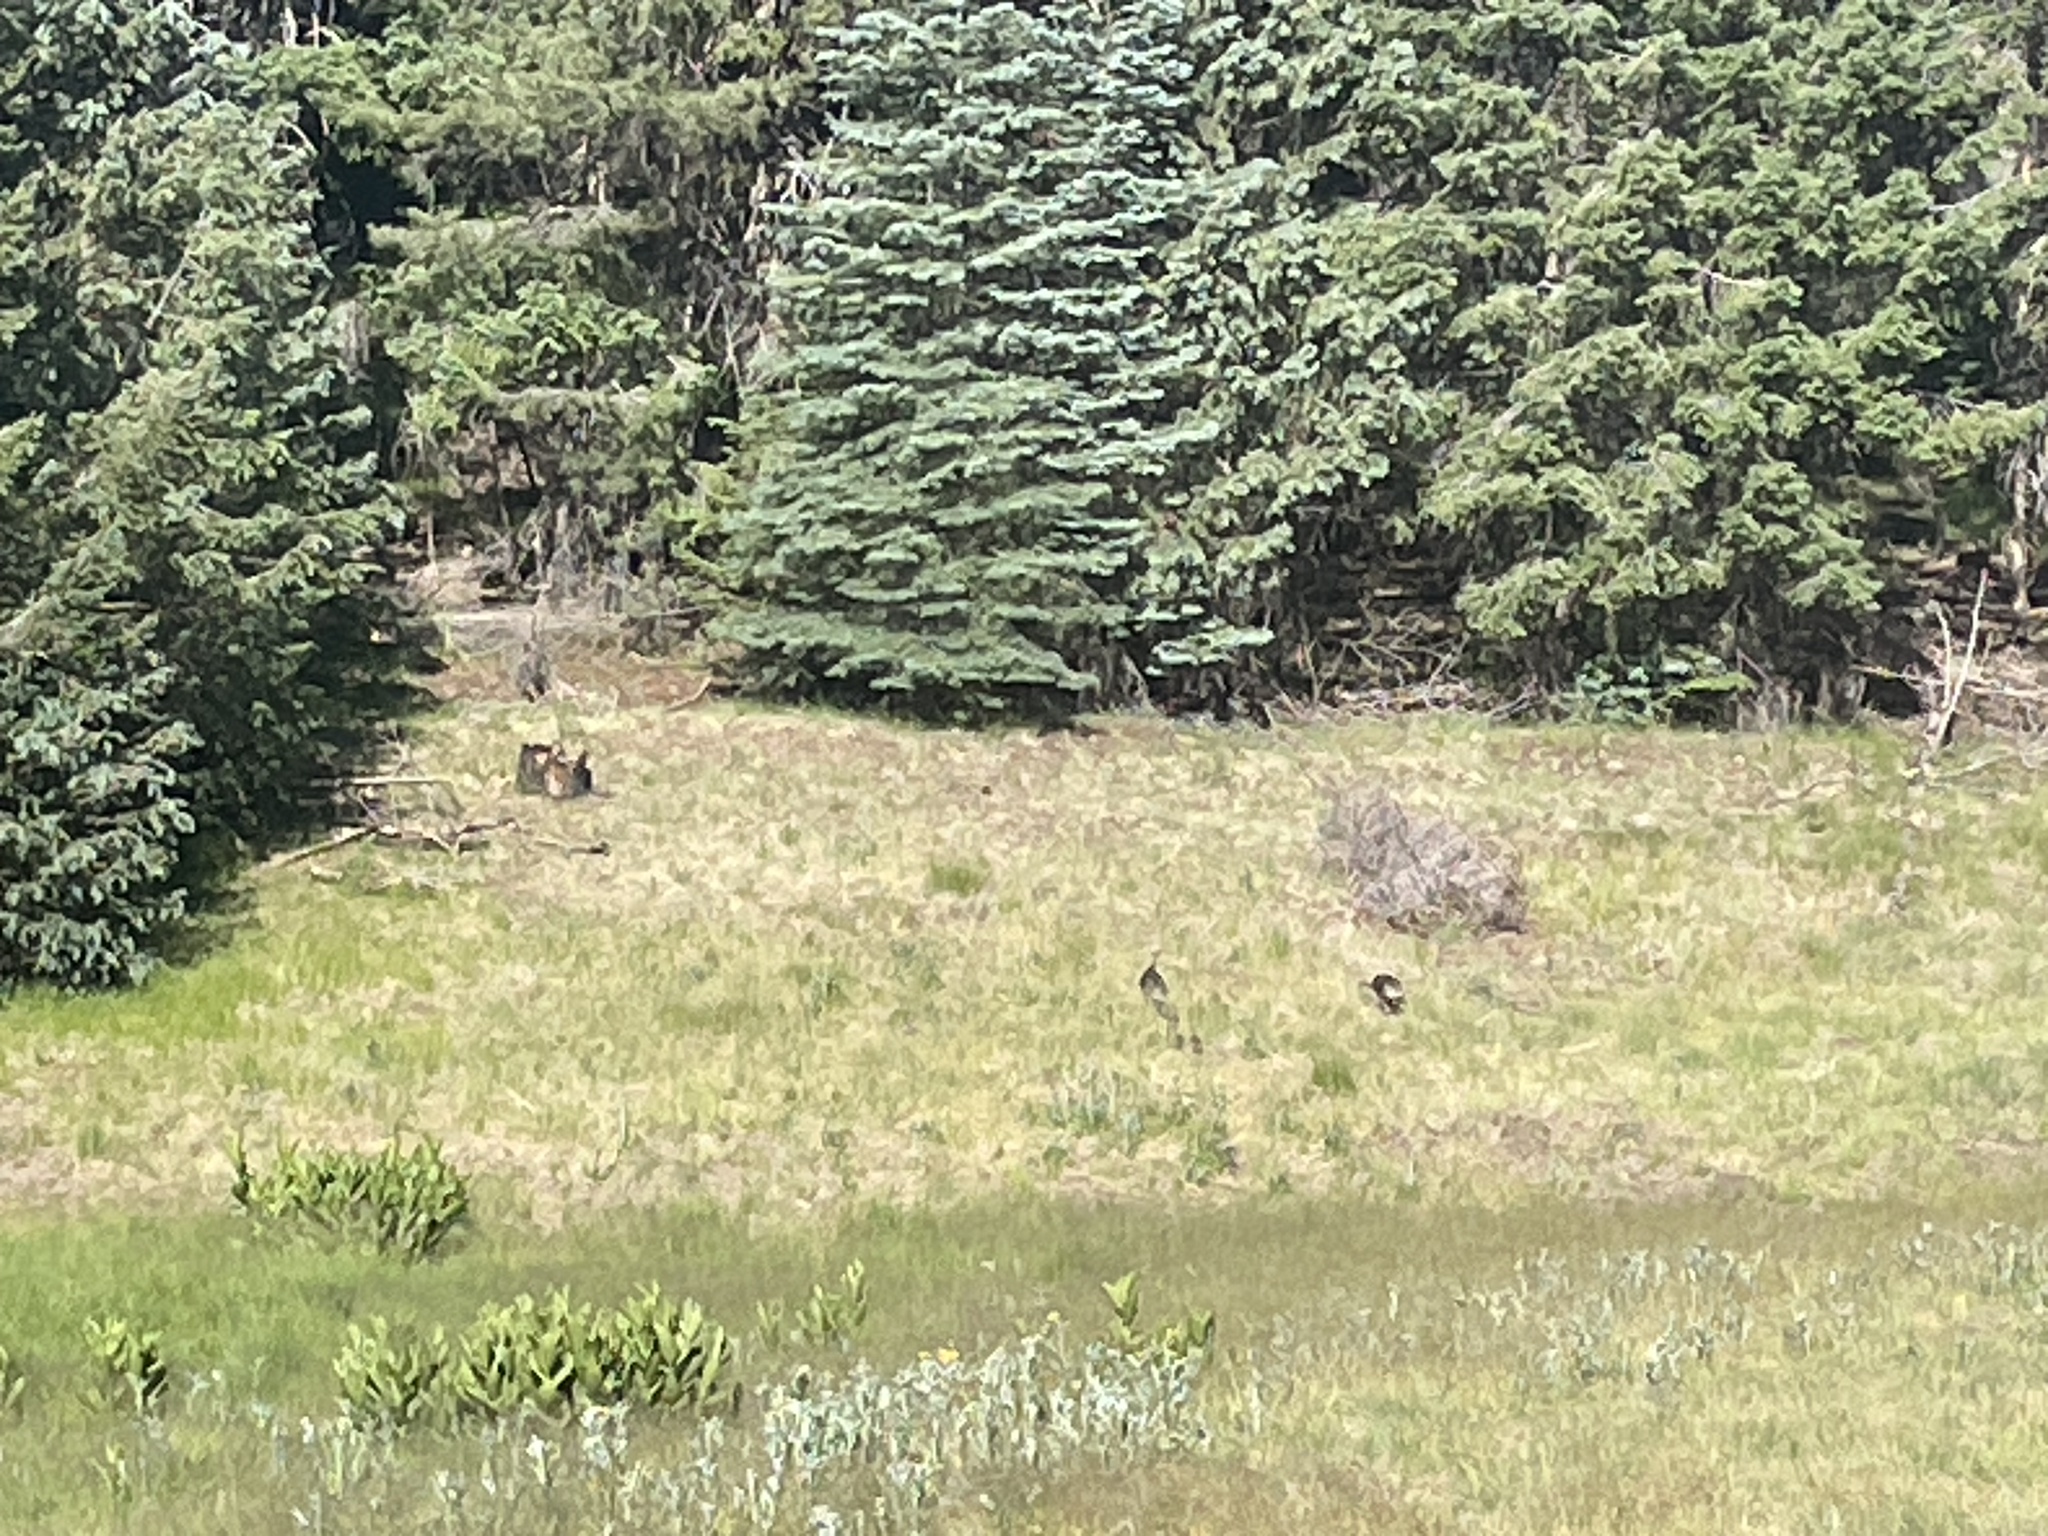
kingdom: Animalia
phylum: Chordata
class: Aves
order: Galliformes
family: Phasianidae
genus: Meleagris
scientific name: Meleagris gallopavo
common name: Wild turkey
